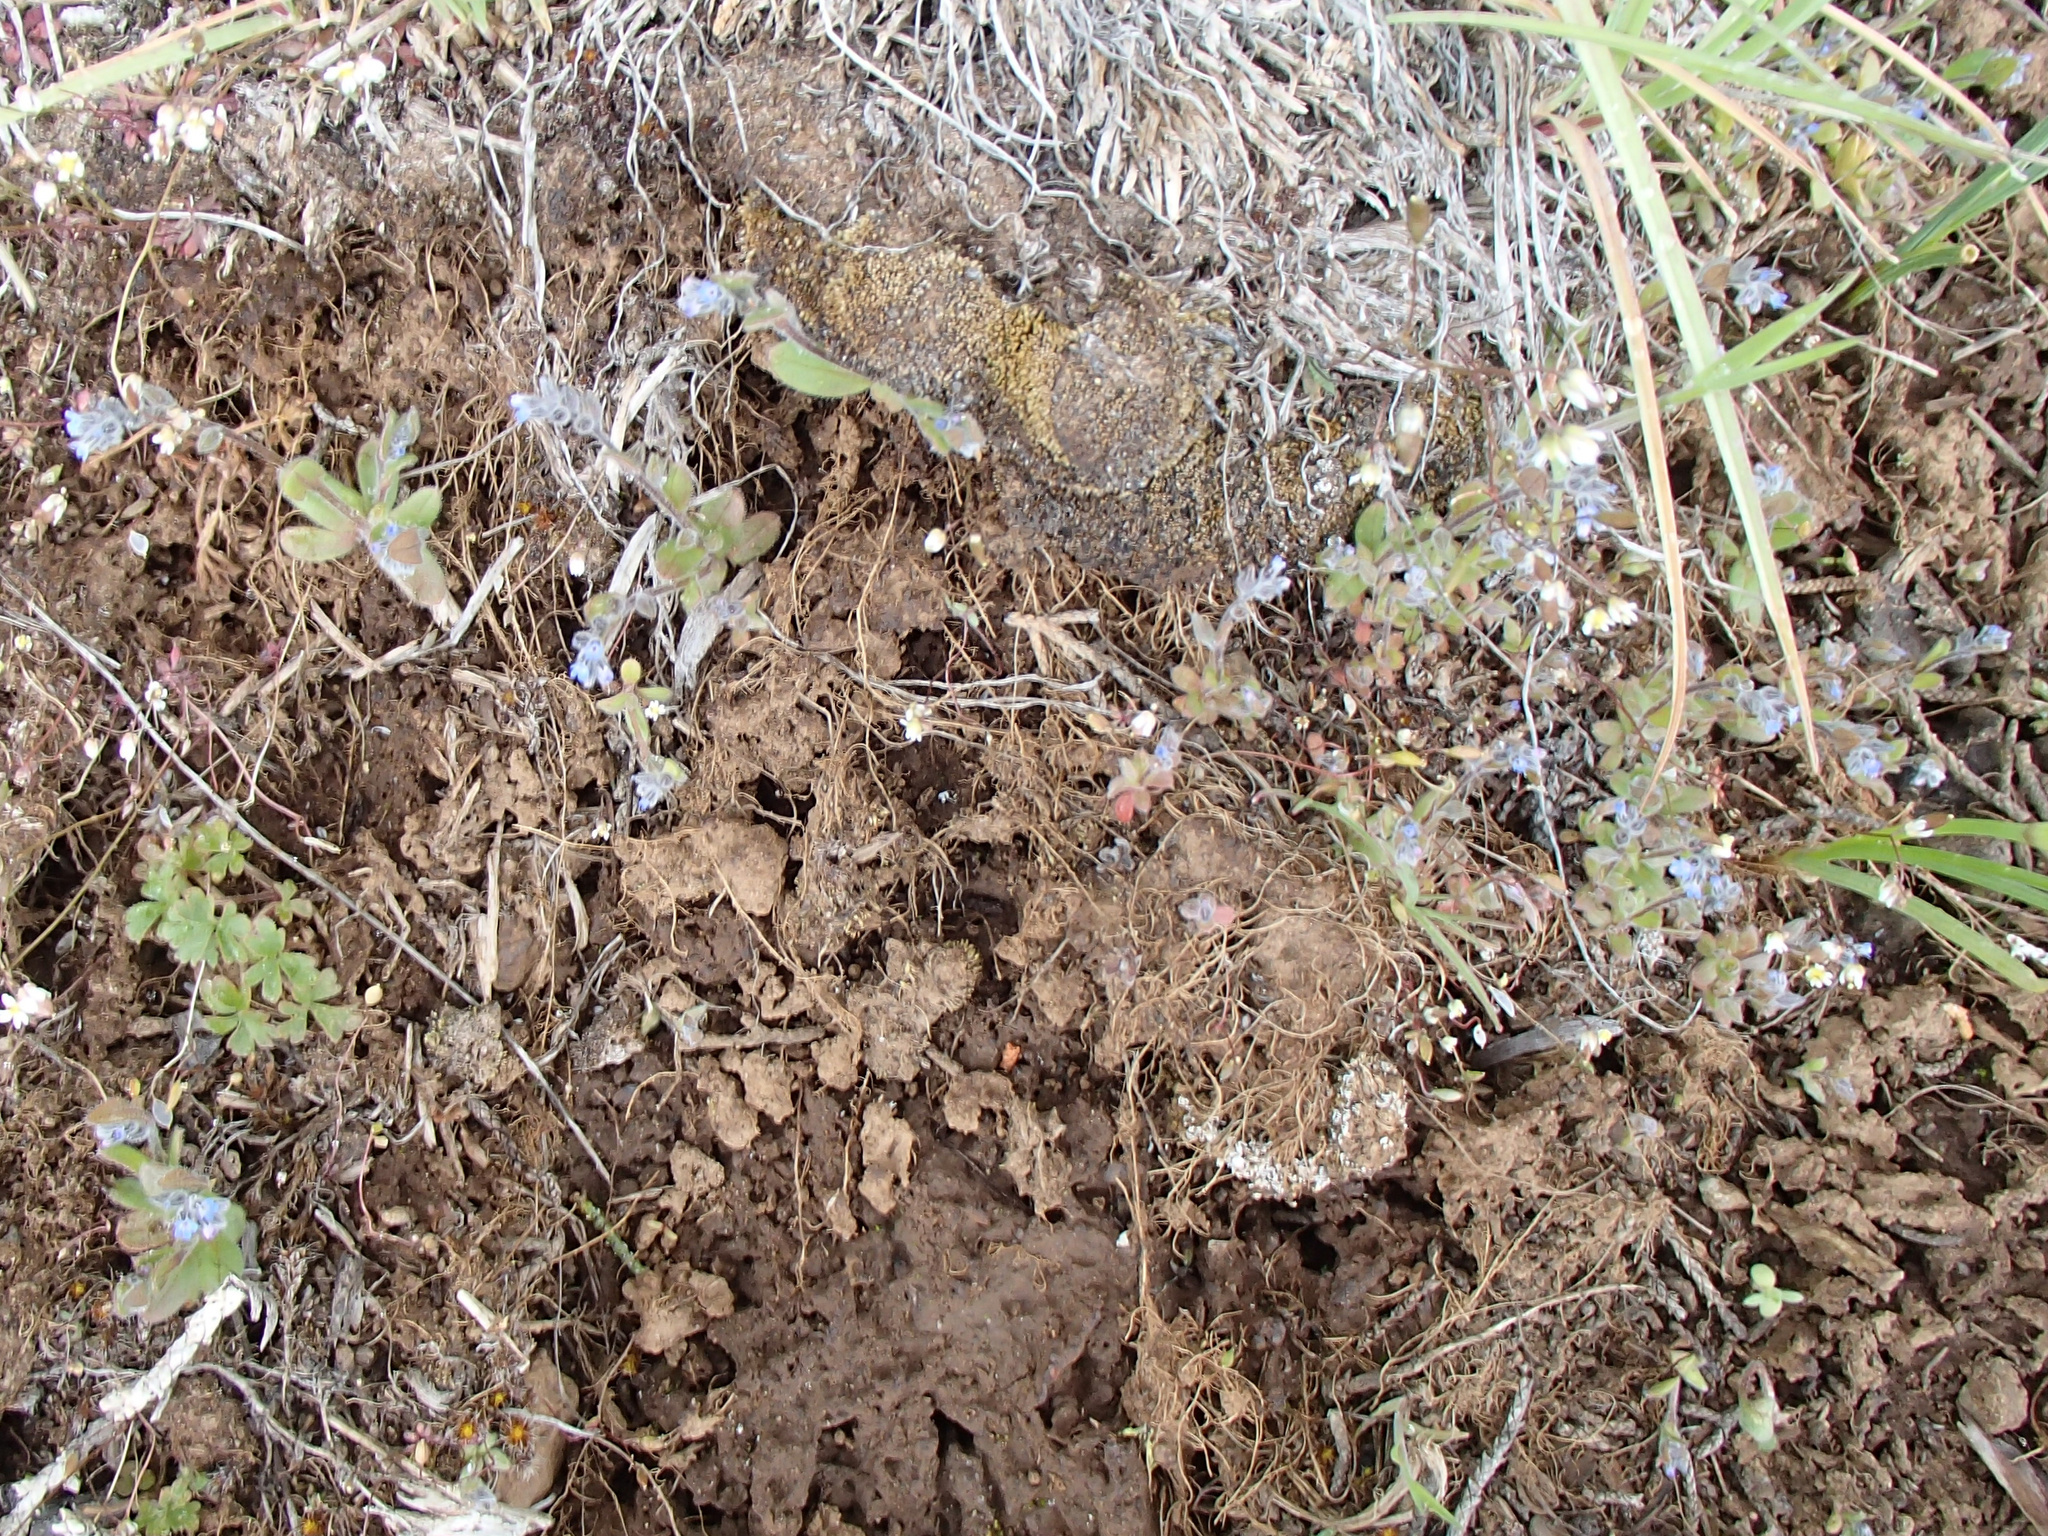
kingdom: Plantae
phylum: Tracheophyta
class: Magnoliopsida
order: Boraginales
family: Boraginaceae
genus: Myosotis
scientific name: Myosotis stricta
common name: Strict forget-me-not
